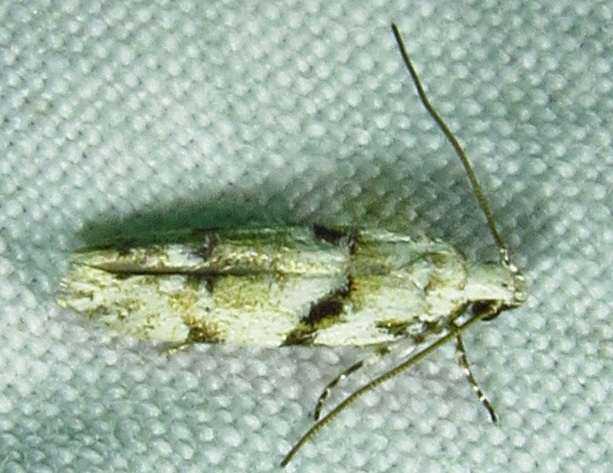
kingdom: Animalia
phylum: Arthropoda
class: Insecta
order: Lepidoptera
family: Gelechiidae
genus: Arogalea
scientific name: Arogalea cristifasciella
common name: White stripe-backed moth
